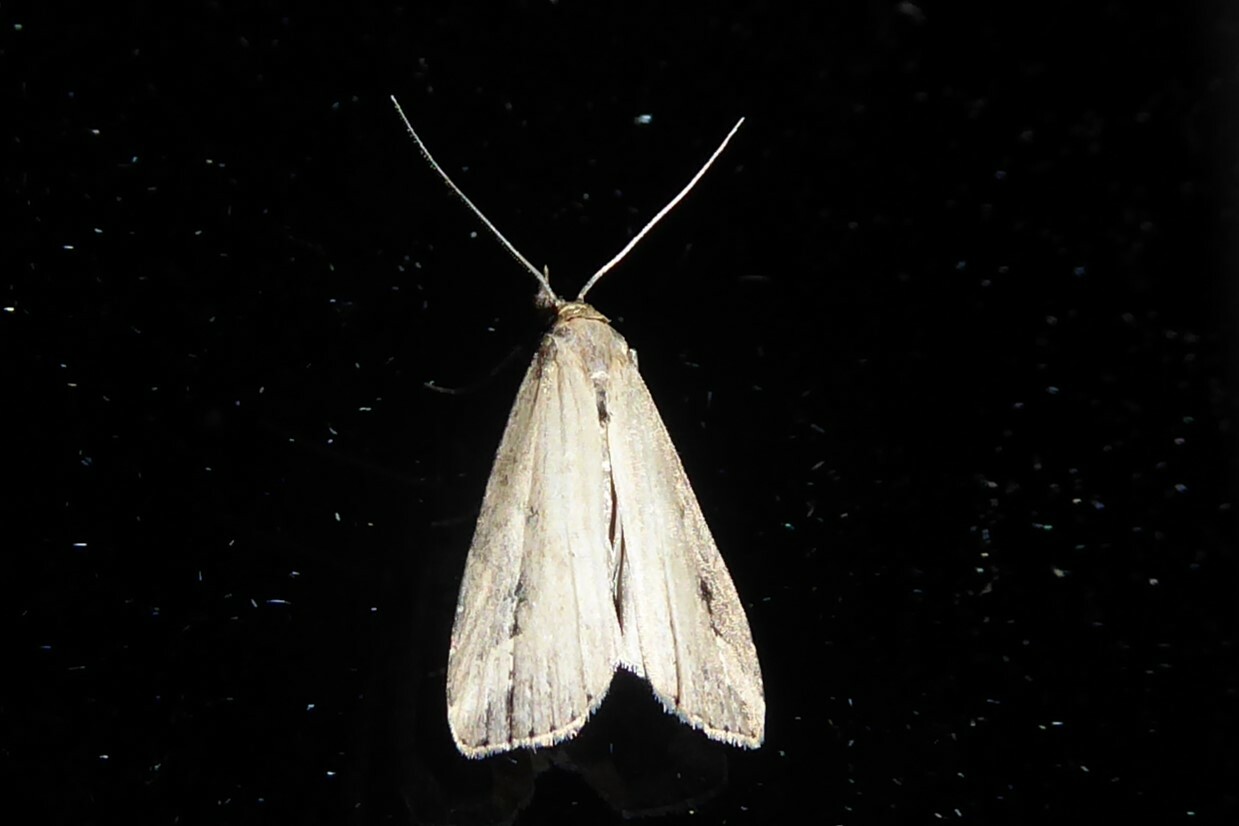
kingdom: Animalia
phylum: Arthropoda
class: Insecta
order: Lepidoptera
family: Erebidae
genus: Schrankia
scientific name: Schrankia costaestrigalis
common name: Pinion-streaked snout
